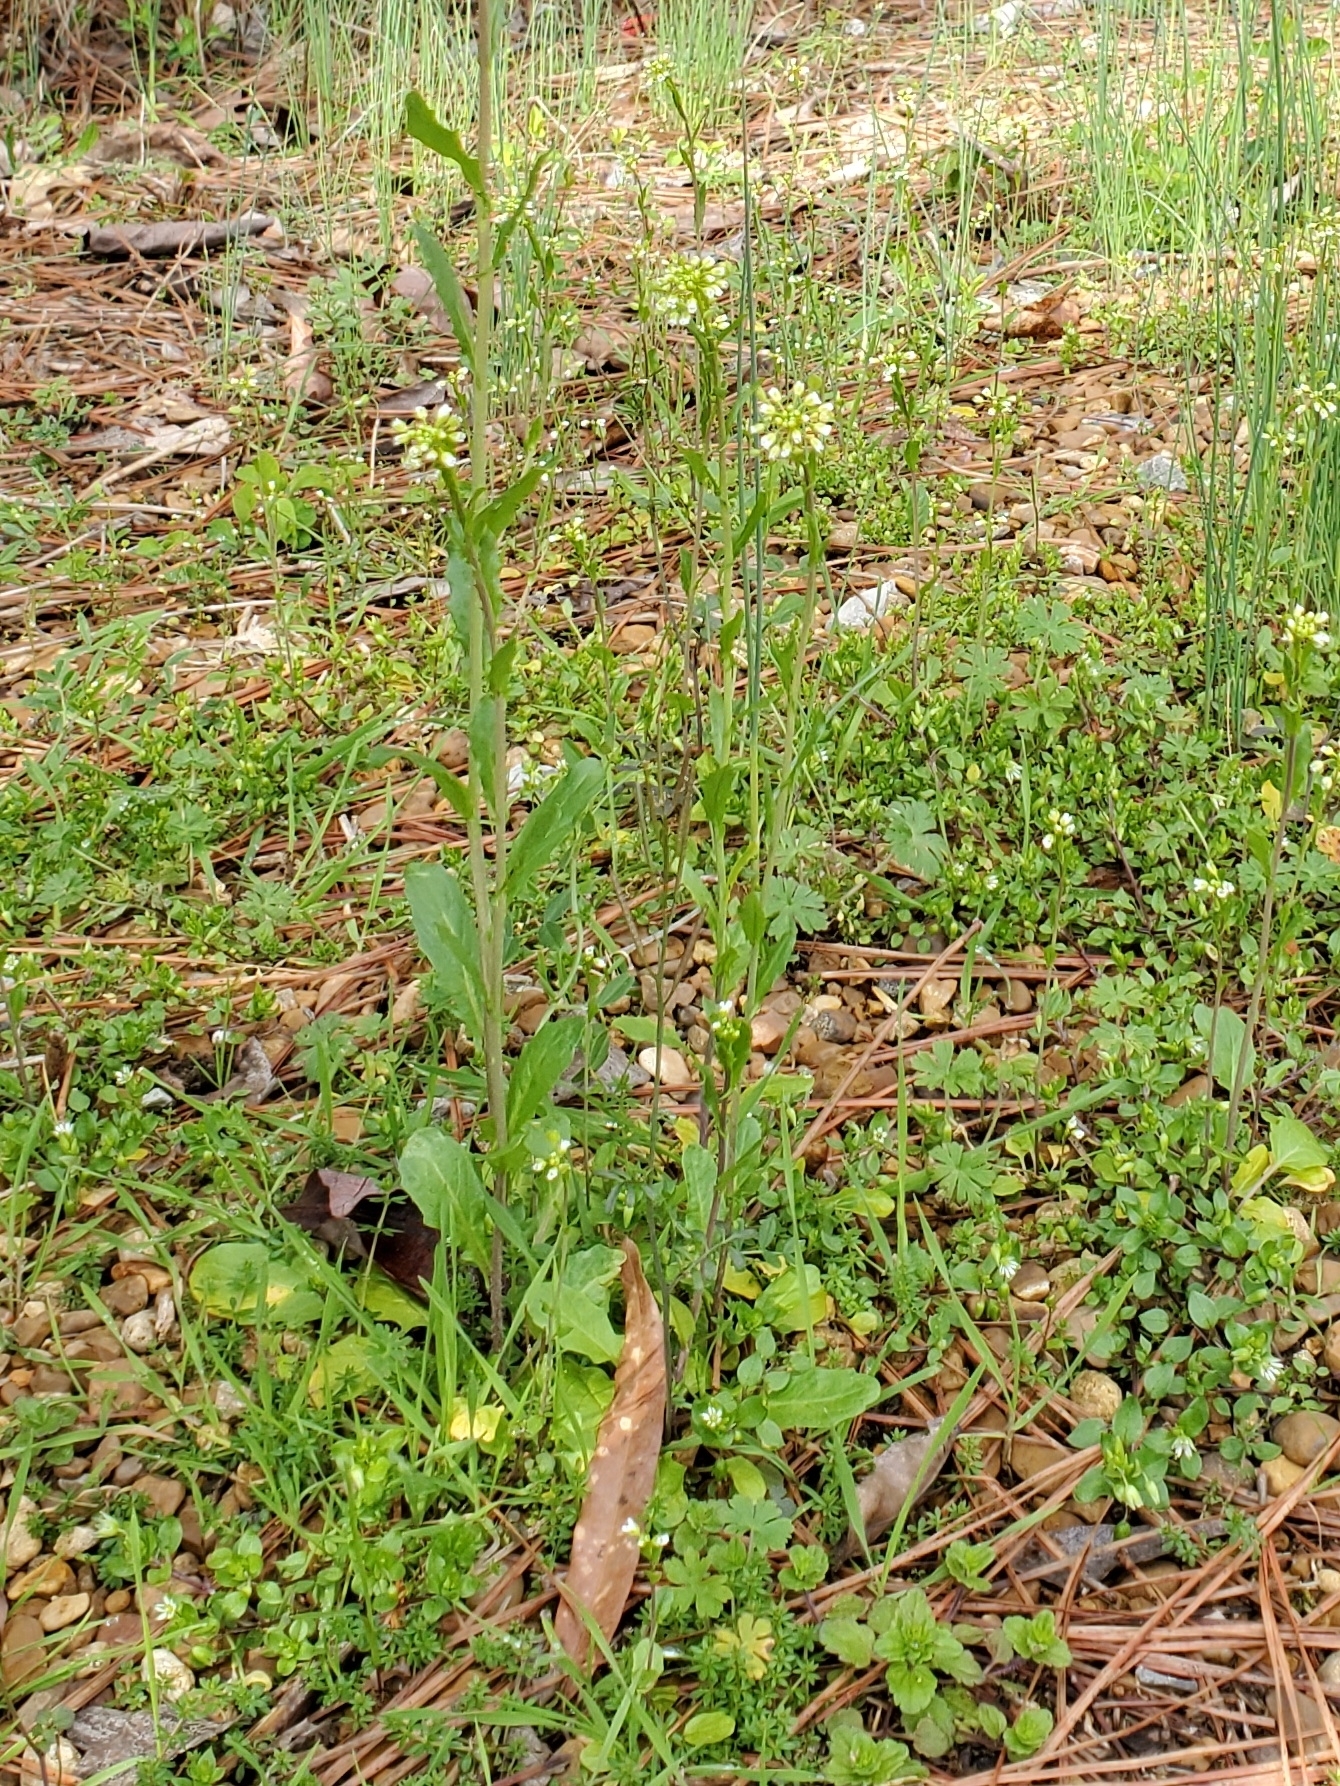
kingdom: Plantae
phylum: Tracheophyta
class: Magnoliopsida
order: Brassicales
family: Brassicaceae
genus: Mummenhoffia
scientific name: Mummenhoffia alliacea
